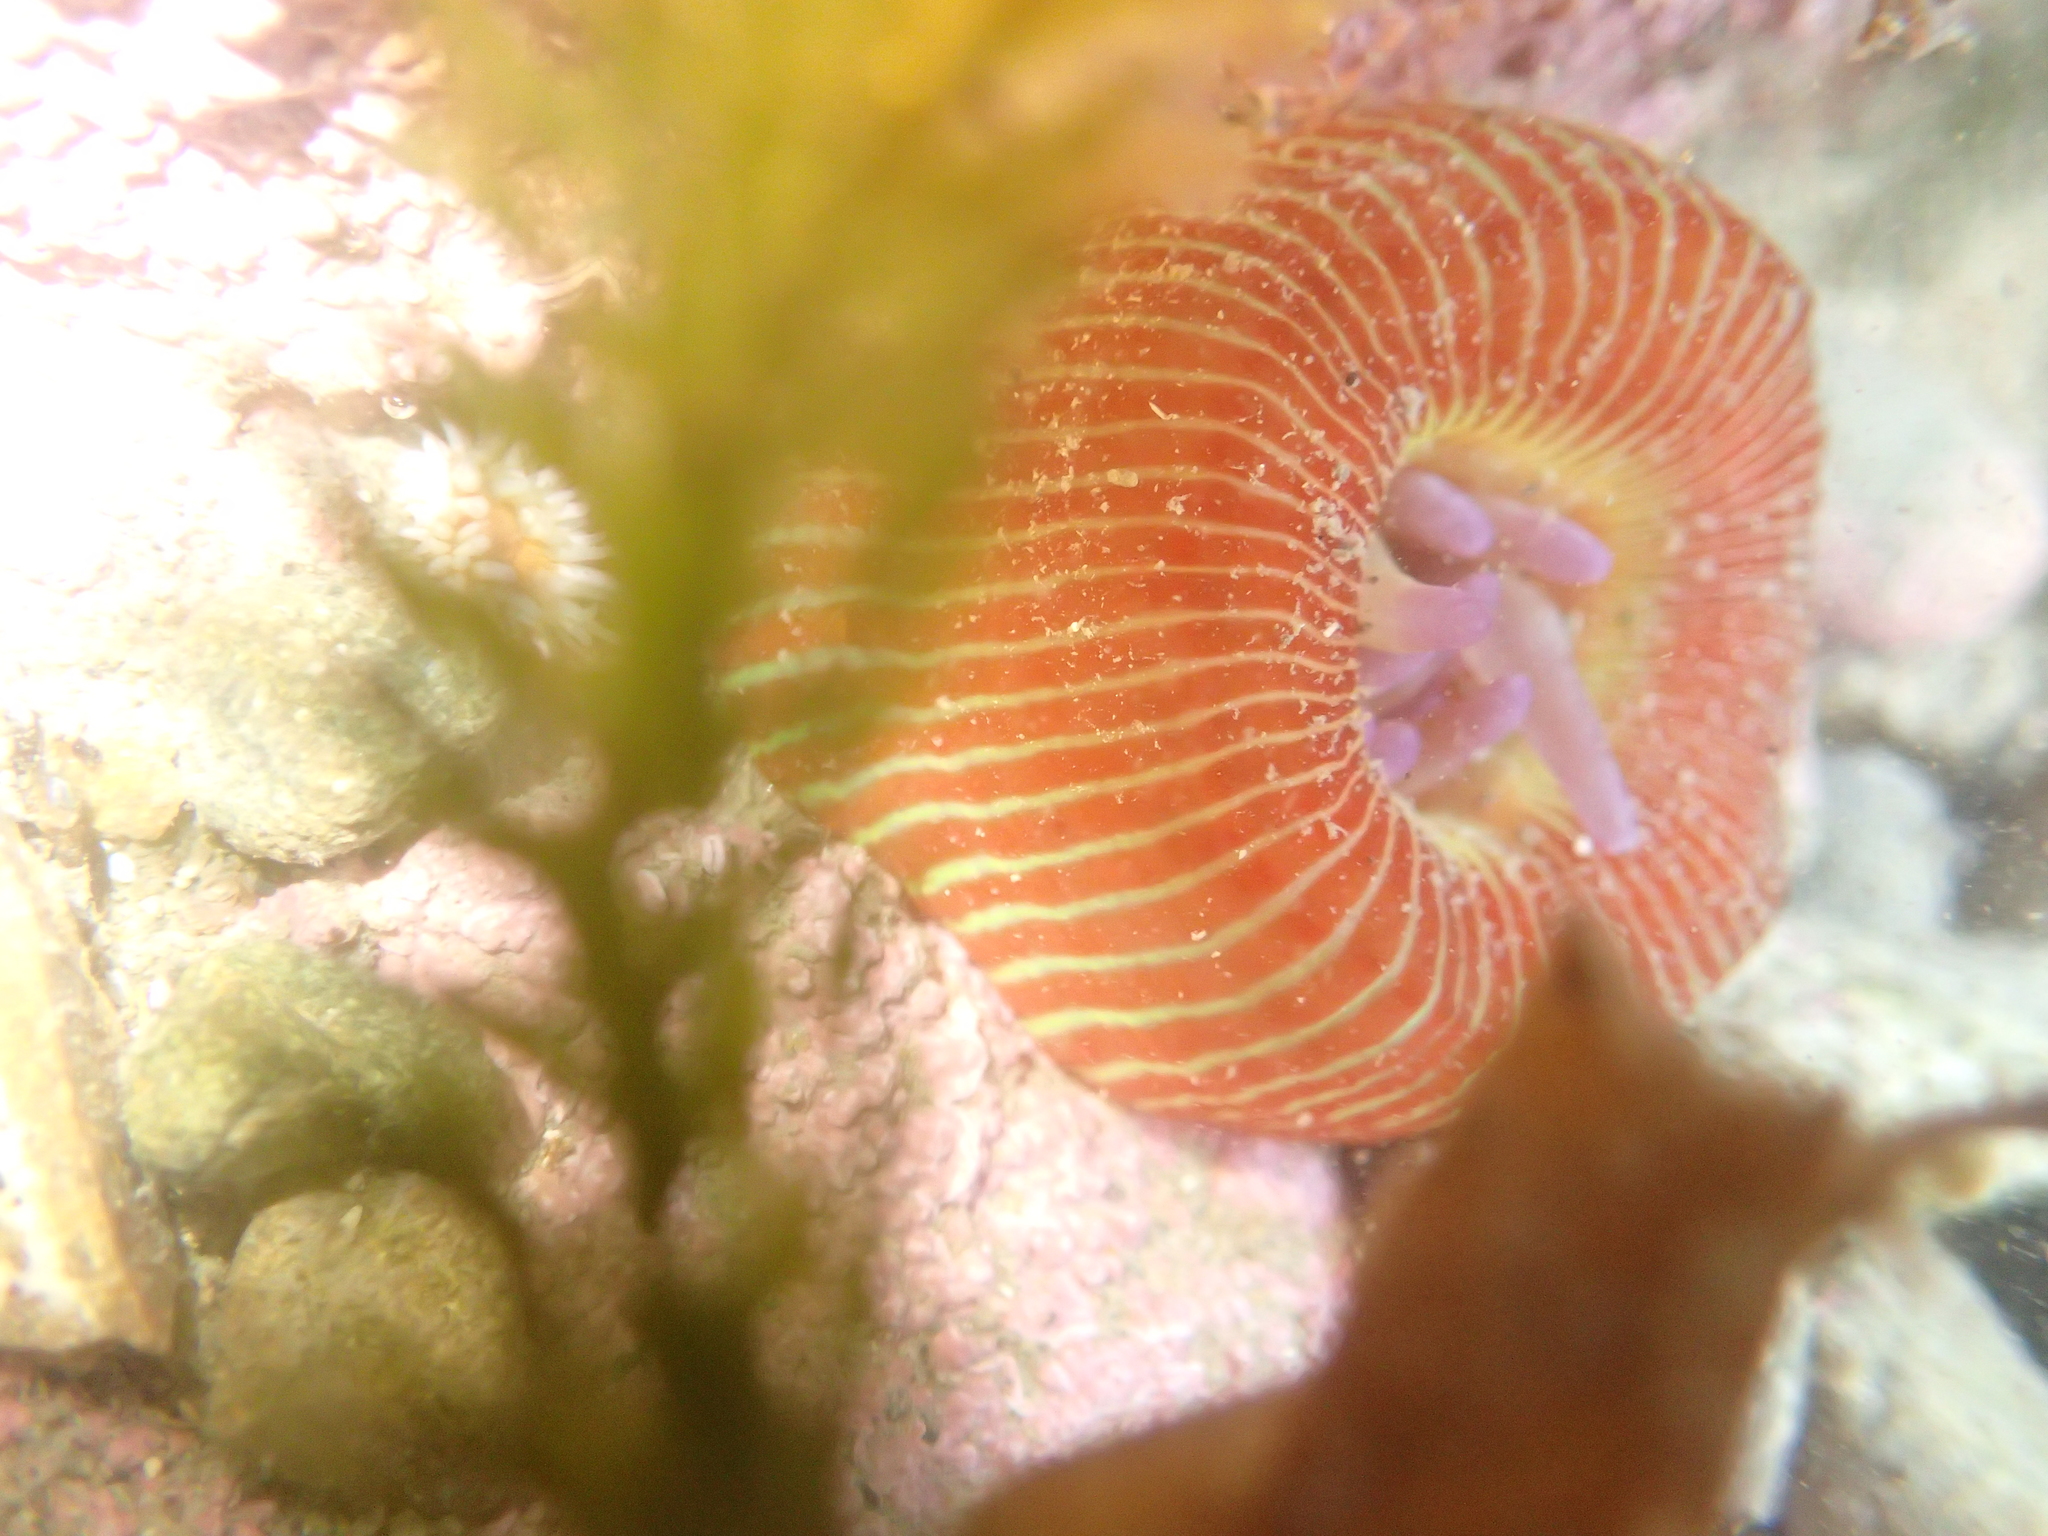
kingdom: Animalia
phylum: Cnidaria
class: Anthozoa
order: Actiniaria
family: Actiniidae
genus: Epiactis
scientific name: Epiactis thompsoni
